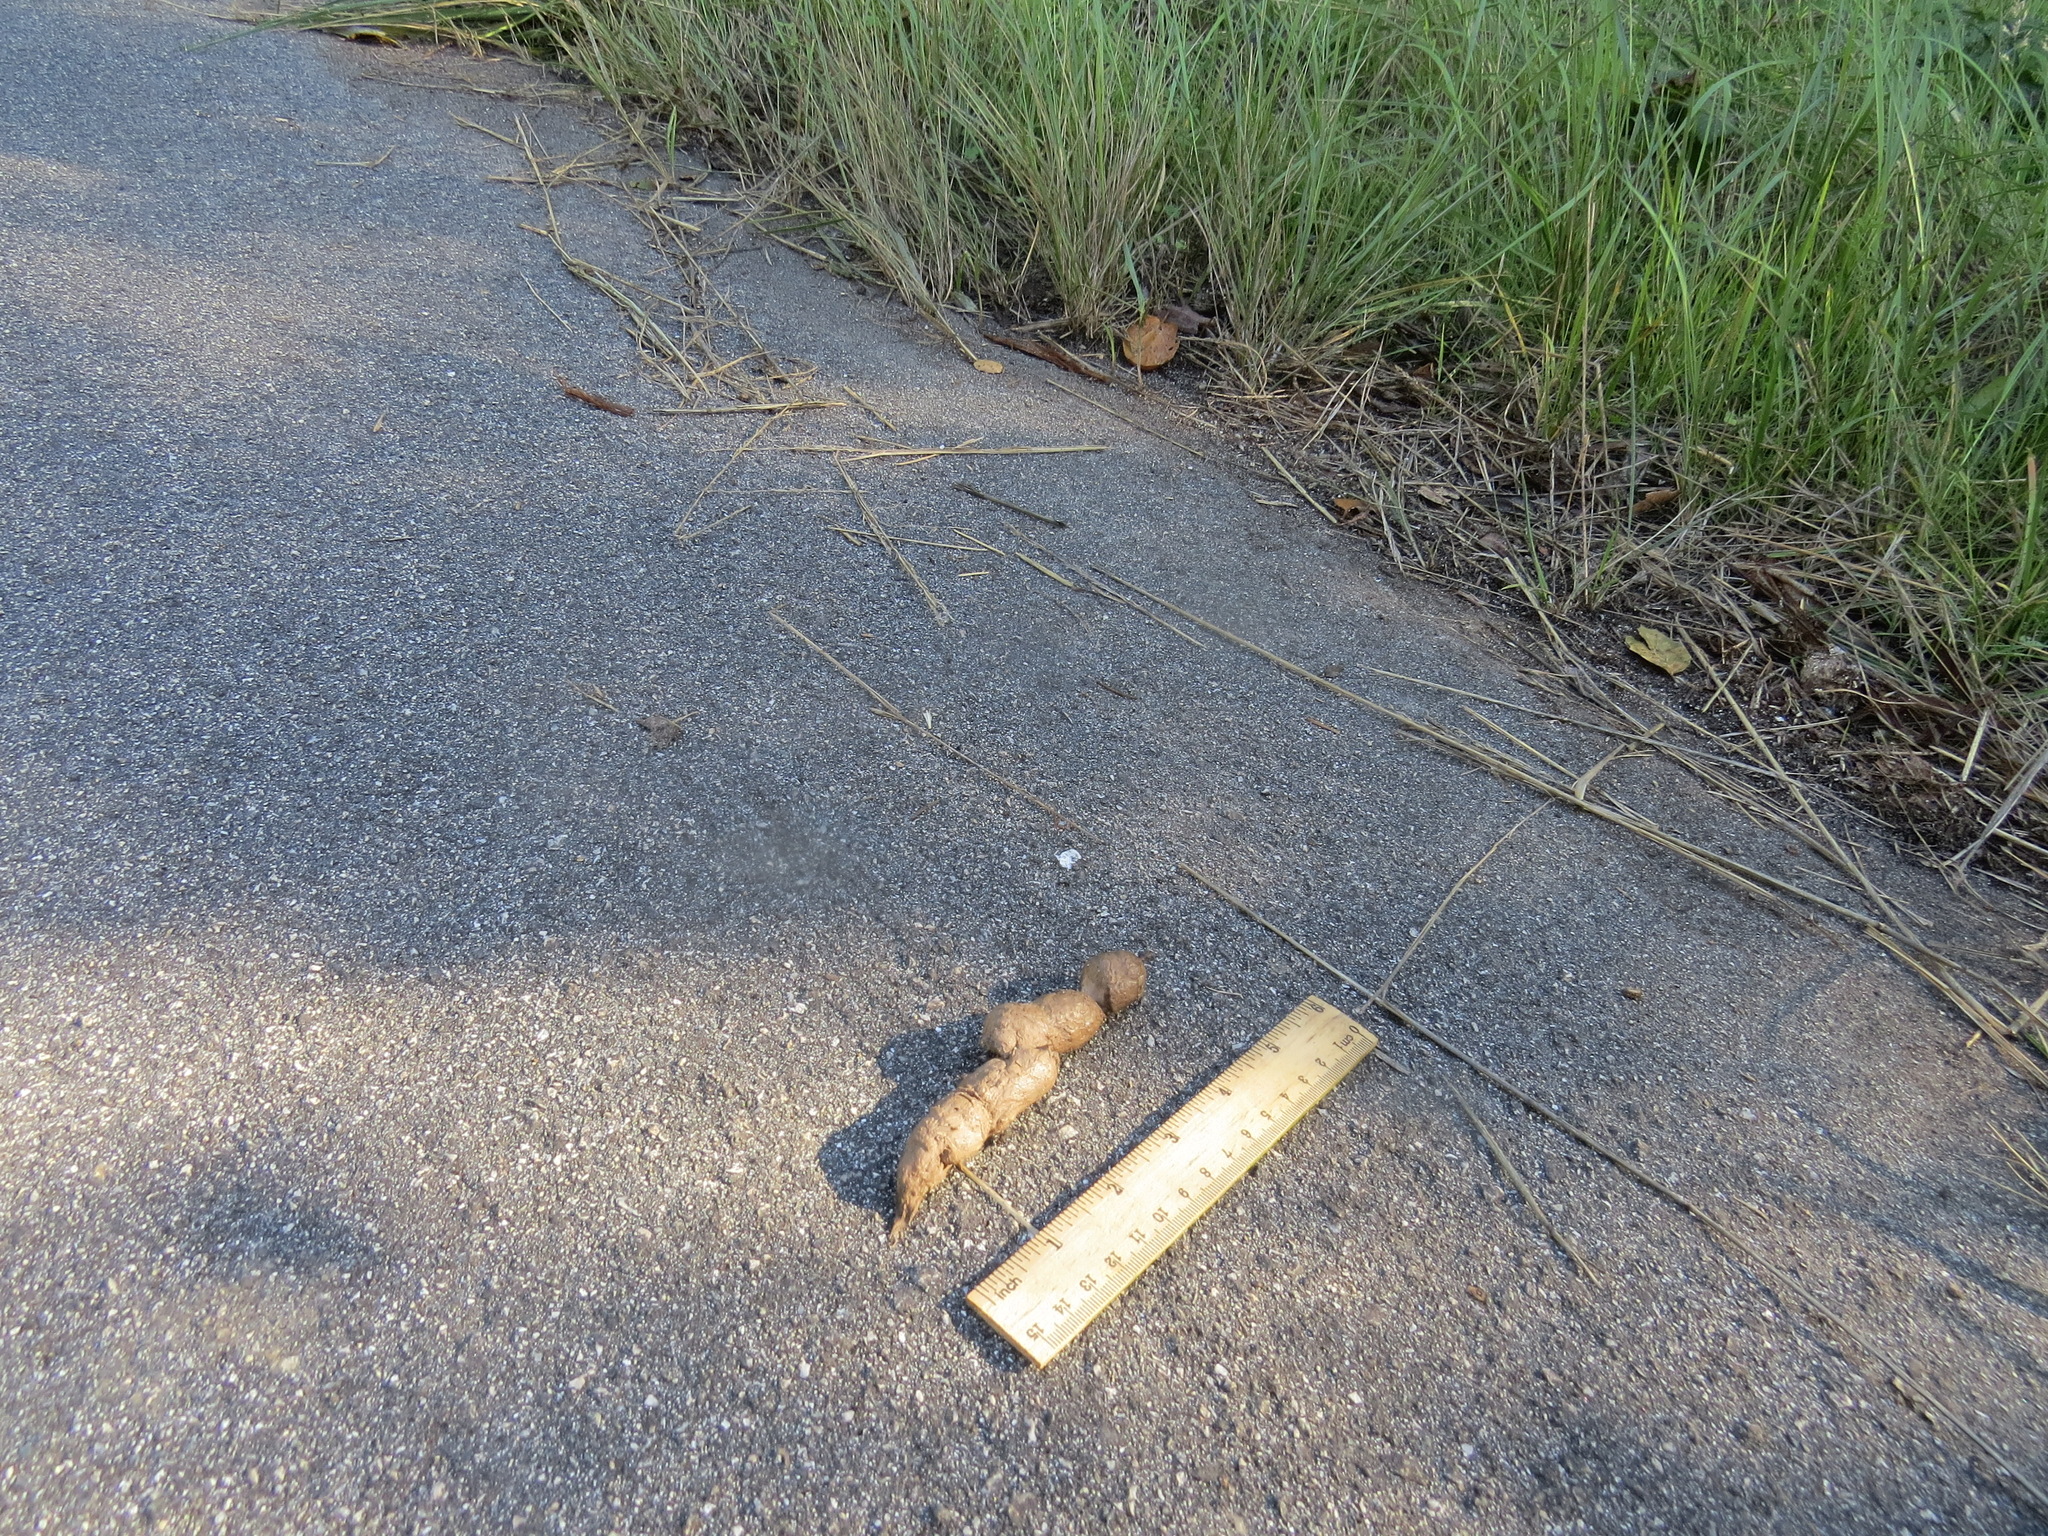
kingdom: Animalia
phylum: Chordata
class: Mammalia
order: Carnivora
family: Felidae
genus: Lynx
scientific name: Lynx rufus
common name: Bobcat
